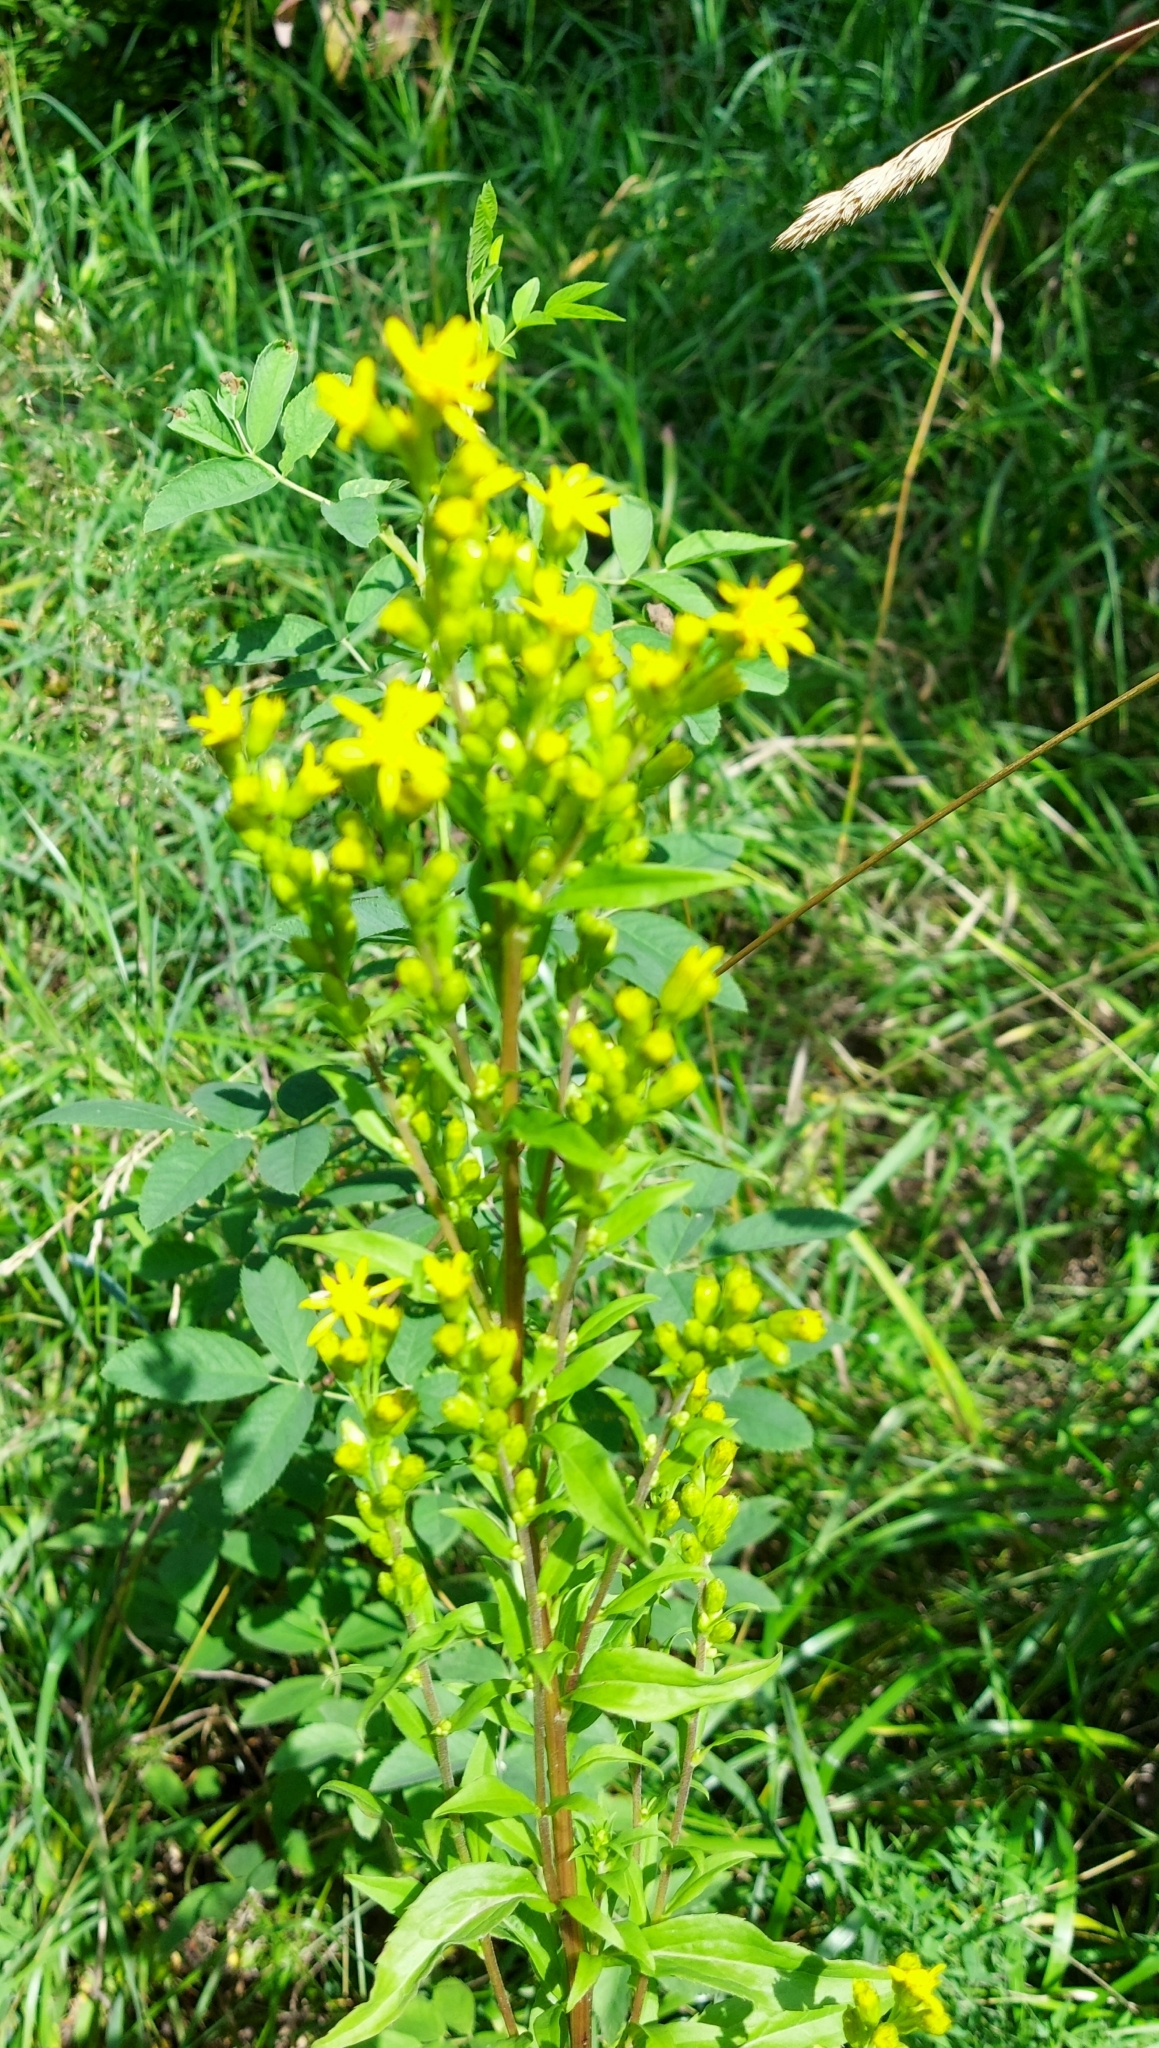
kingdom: Plantae
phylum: Tracheophyta
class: Magnoliopsida
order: Asterales
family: Asteraceae
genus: Solidago
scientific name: Solidago virgaurea
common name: Goldenrod
